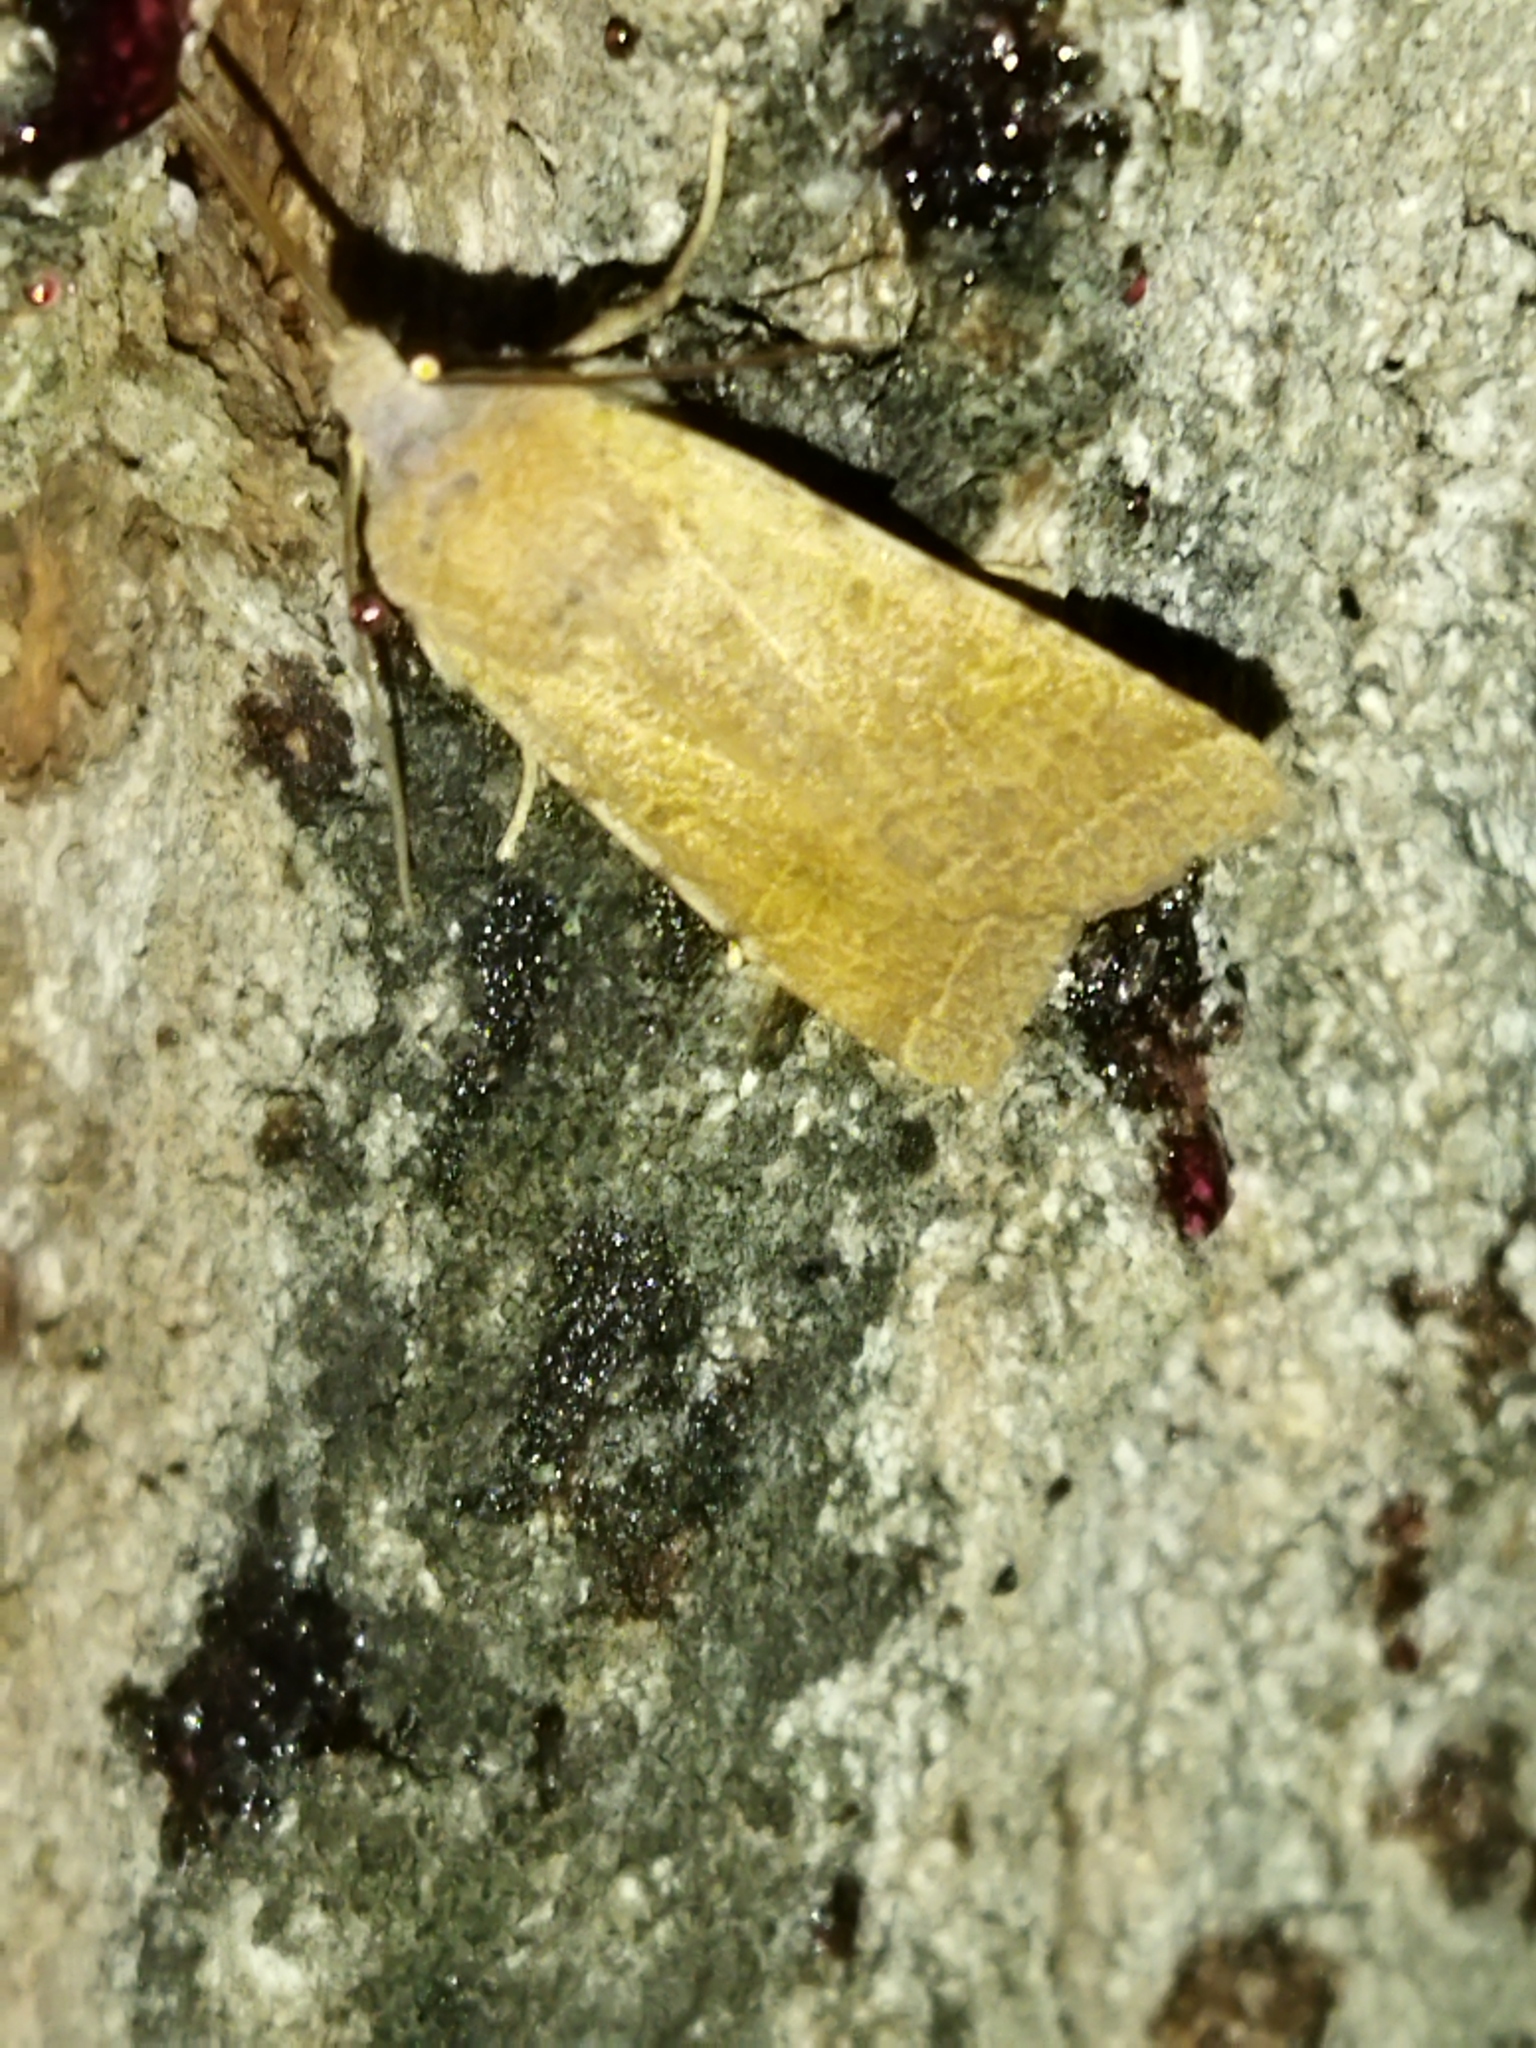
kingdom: Animalia
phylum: Arthropoda
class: Insecta
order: Lepidoptera
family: Noctuidae
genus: Agrochola
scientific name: Agrochola lychnidis
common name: Beaded chestnut
